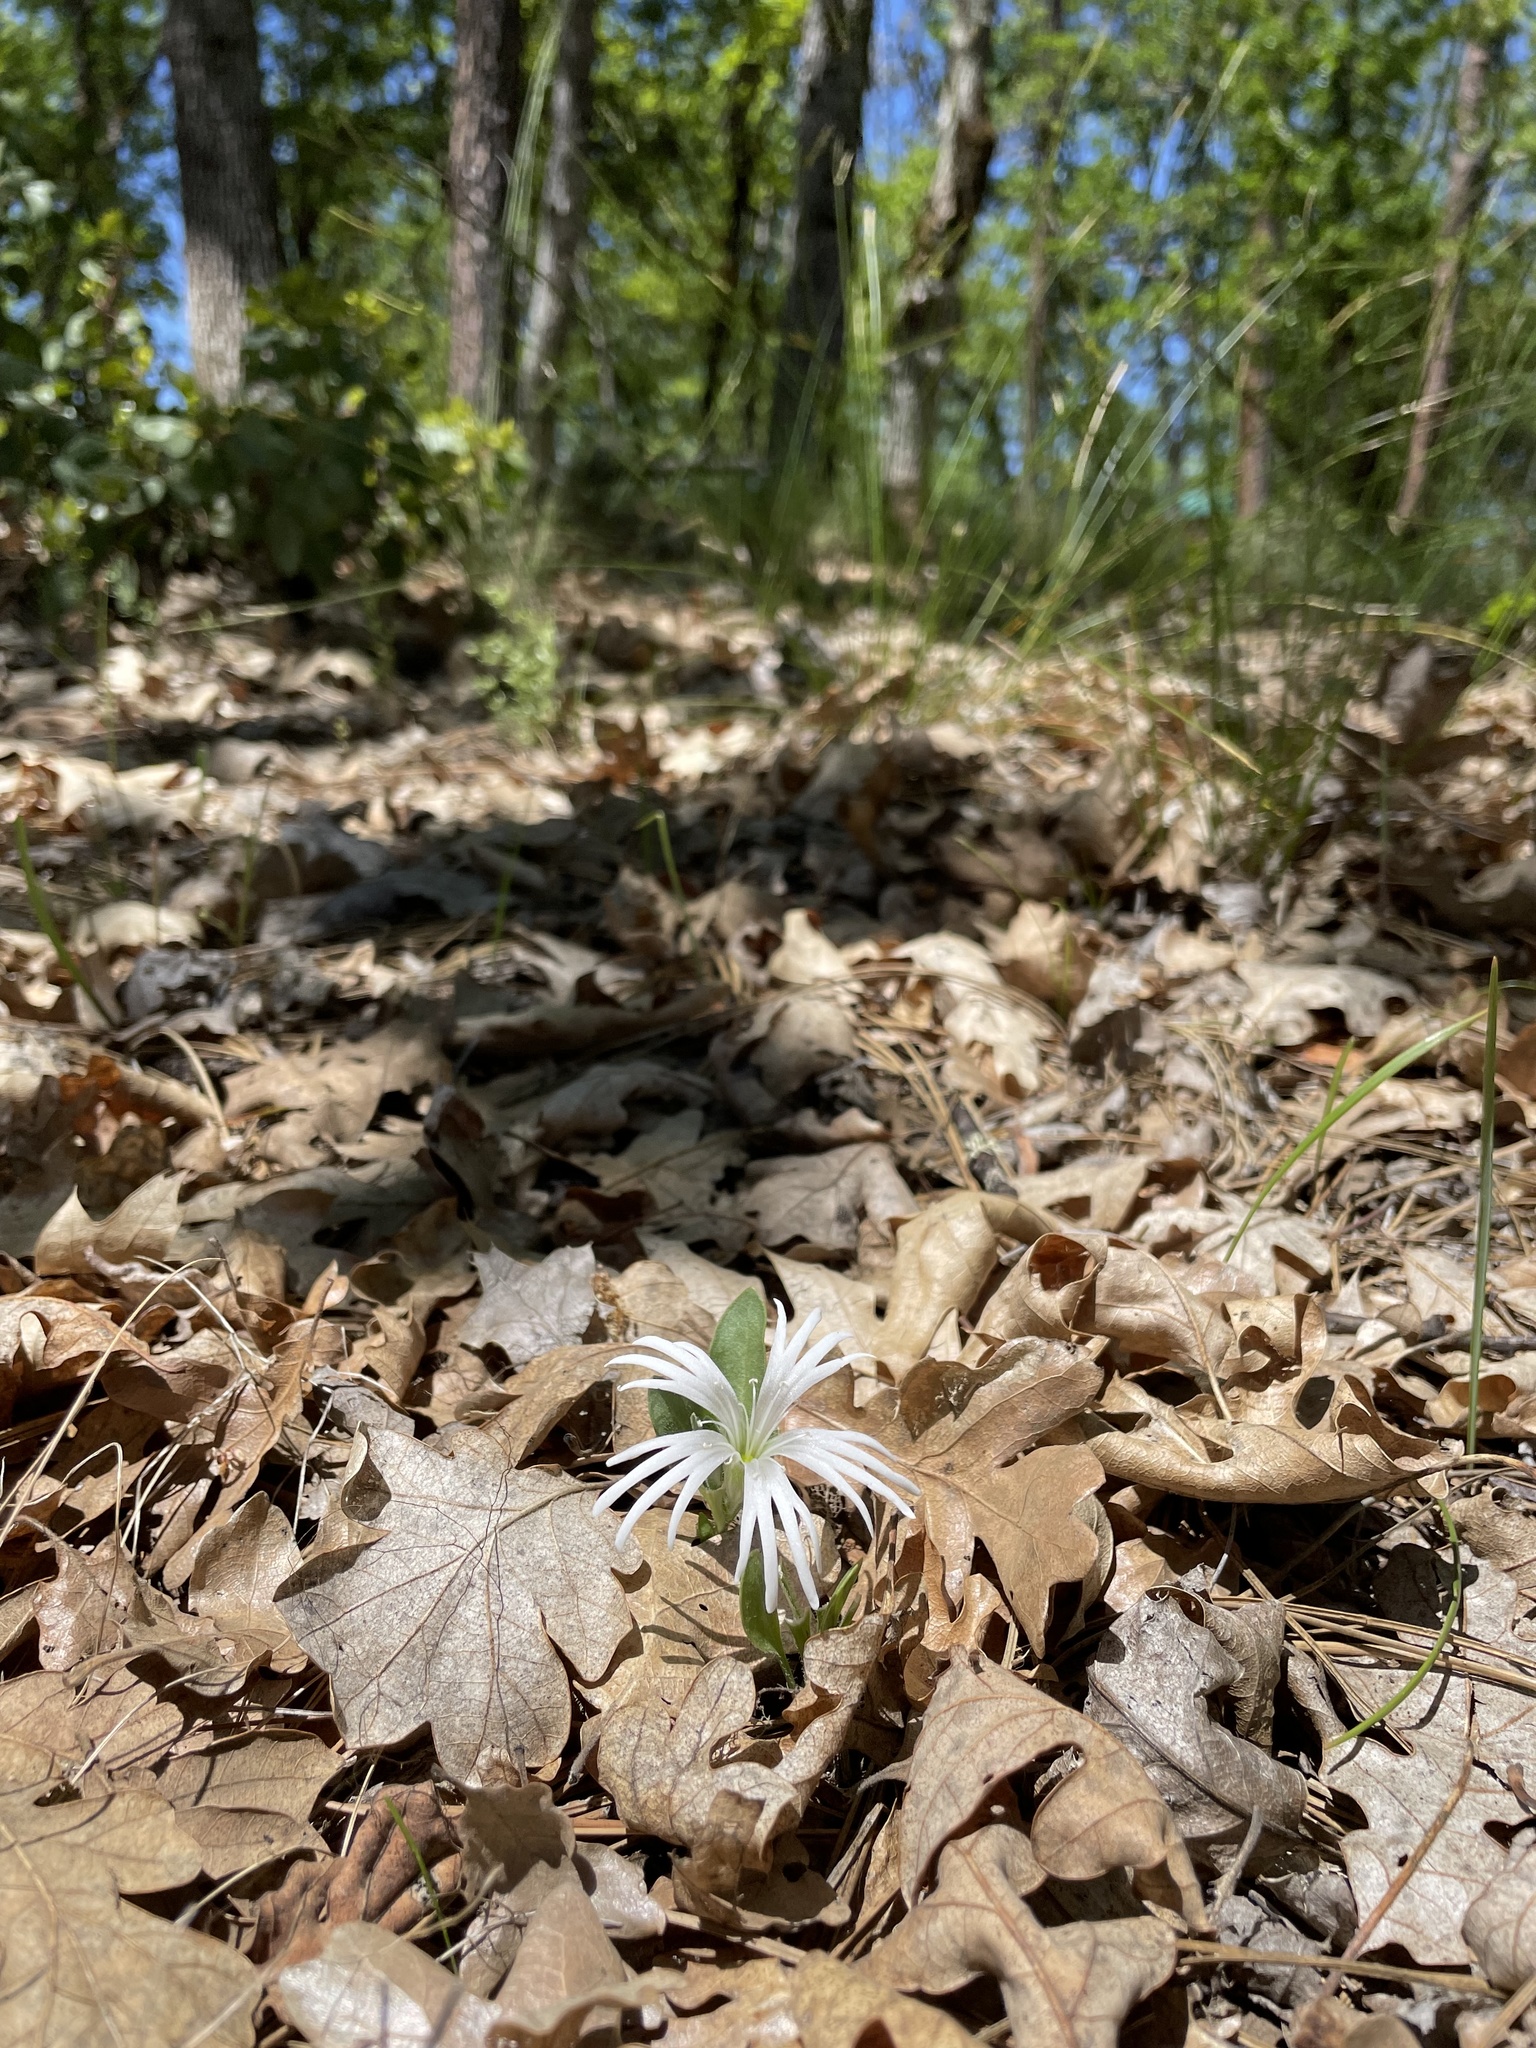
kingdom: Plantae
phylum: Tracheophyta
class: Magnoliopsida
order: Caryophyllales
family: Caryophyllaceae
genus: Silene
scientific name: Silene nelsonii
